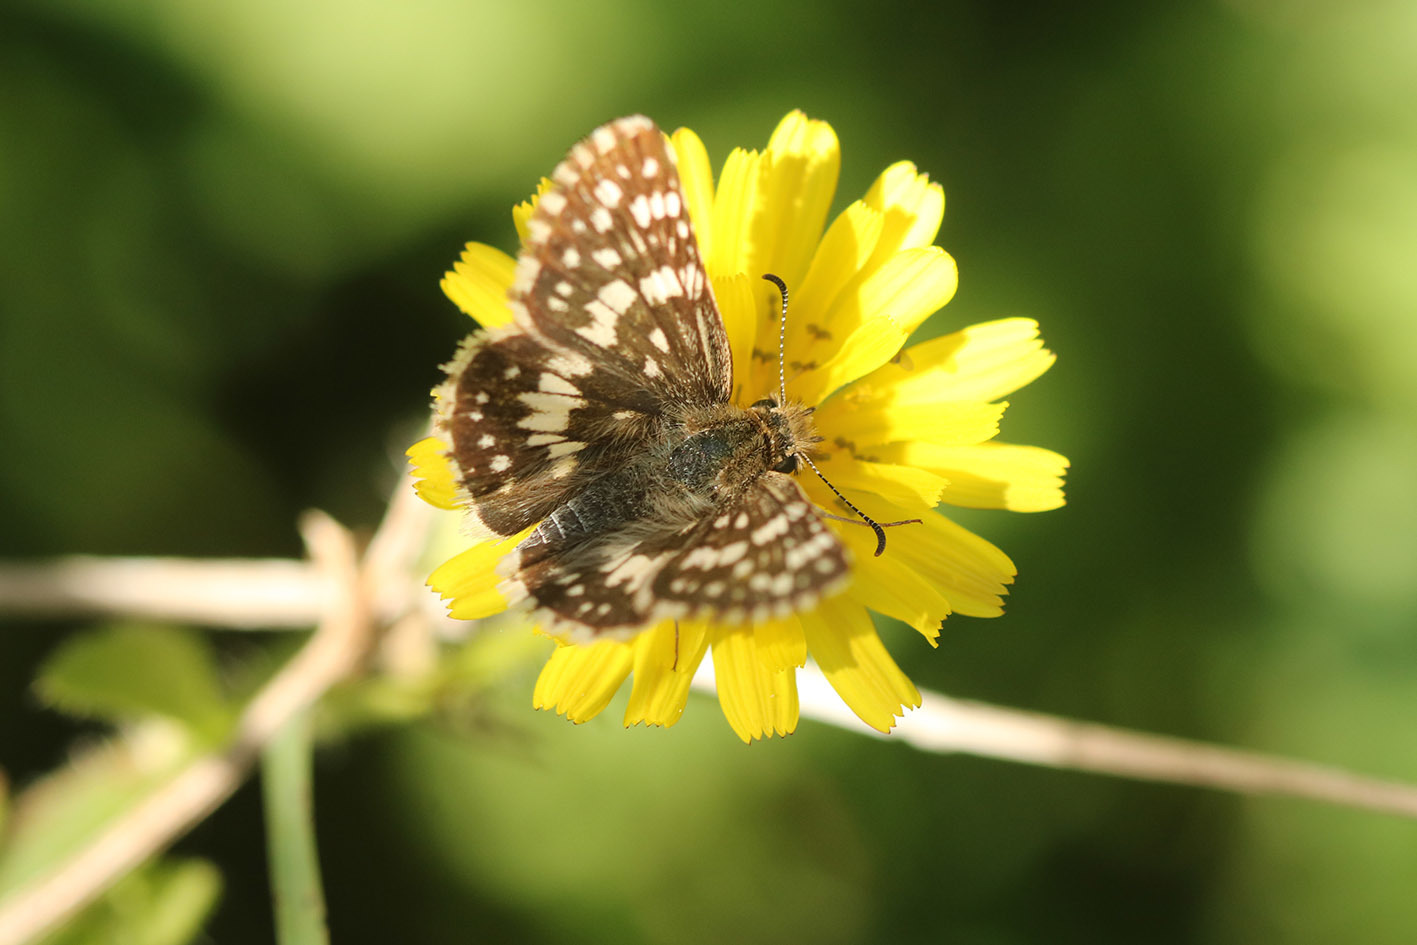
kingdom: Animalia
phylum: Arthropoda
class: Insecta
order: Lepidoptera
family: Hesperiidae
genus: Burnsius
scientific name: Burnsius orcynoides
